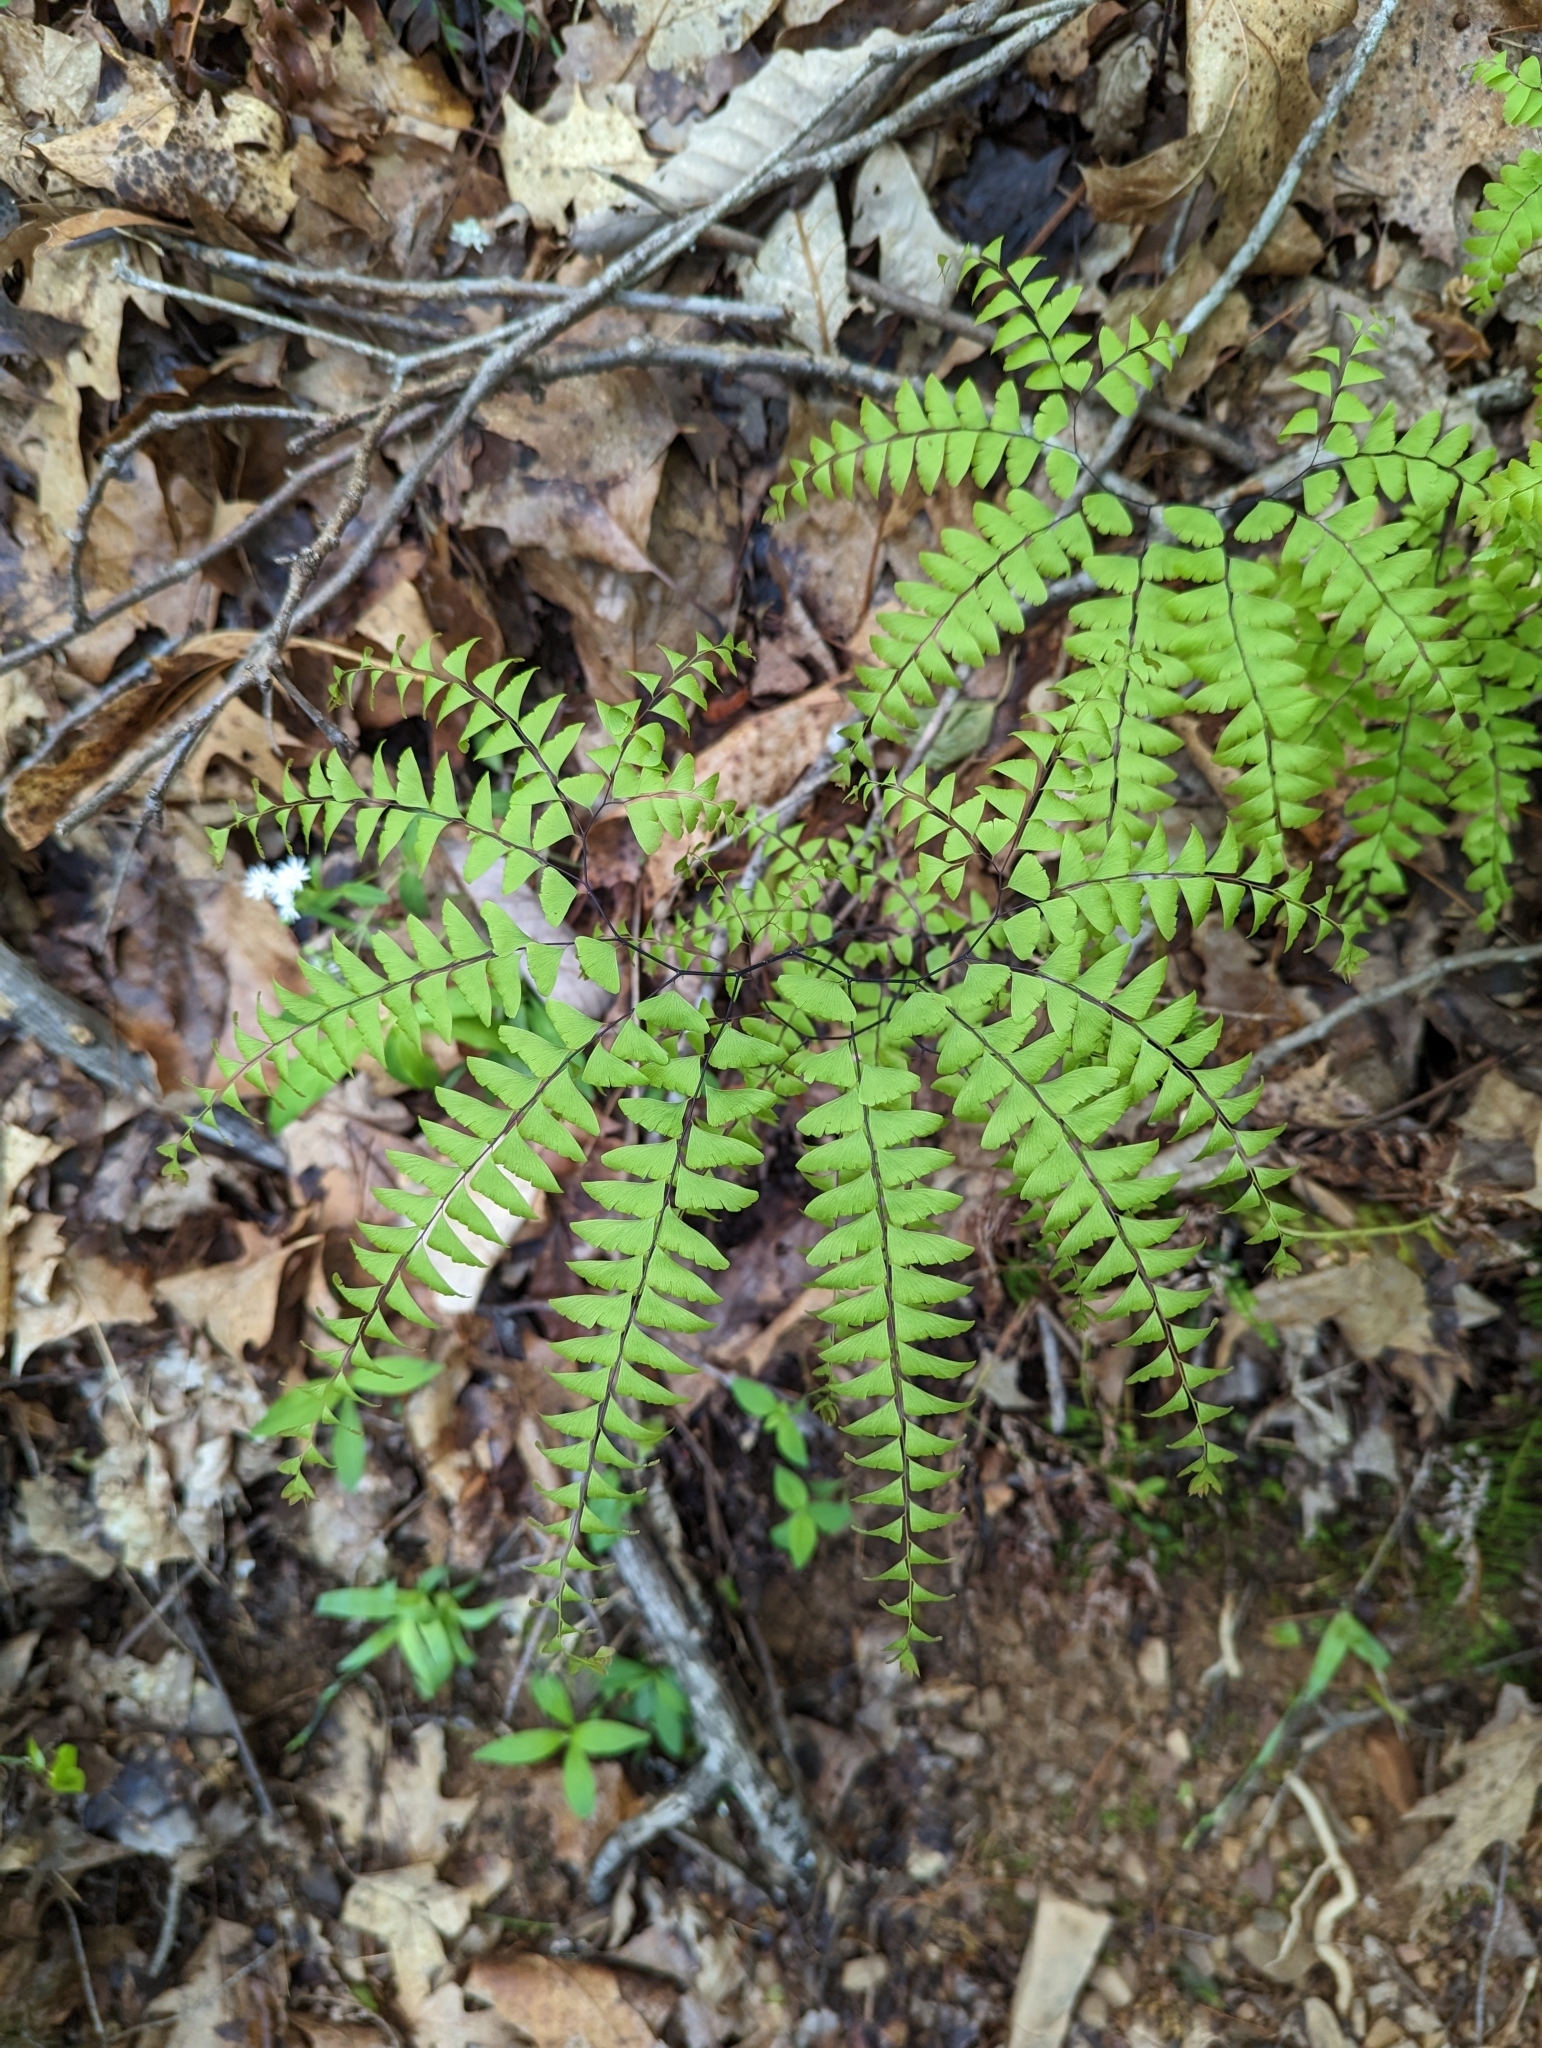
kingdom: Plantae
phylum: Tracheophyta
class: Polypodiopsida
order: Polypodiales
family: Pteridaceae
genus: Adiantum
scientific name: Adiantum pedatum
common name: Five-finger fern
